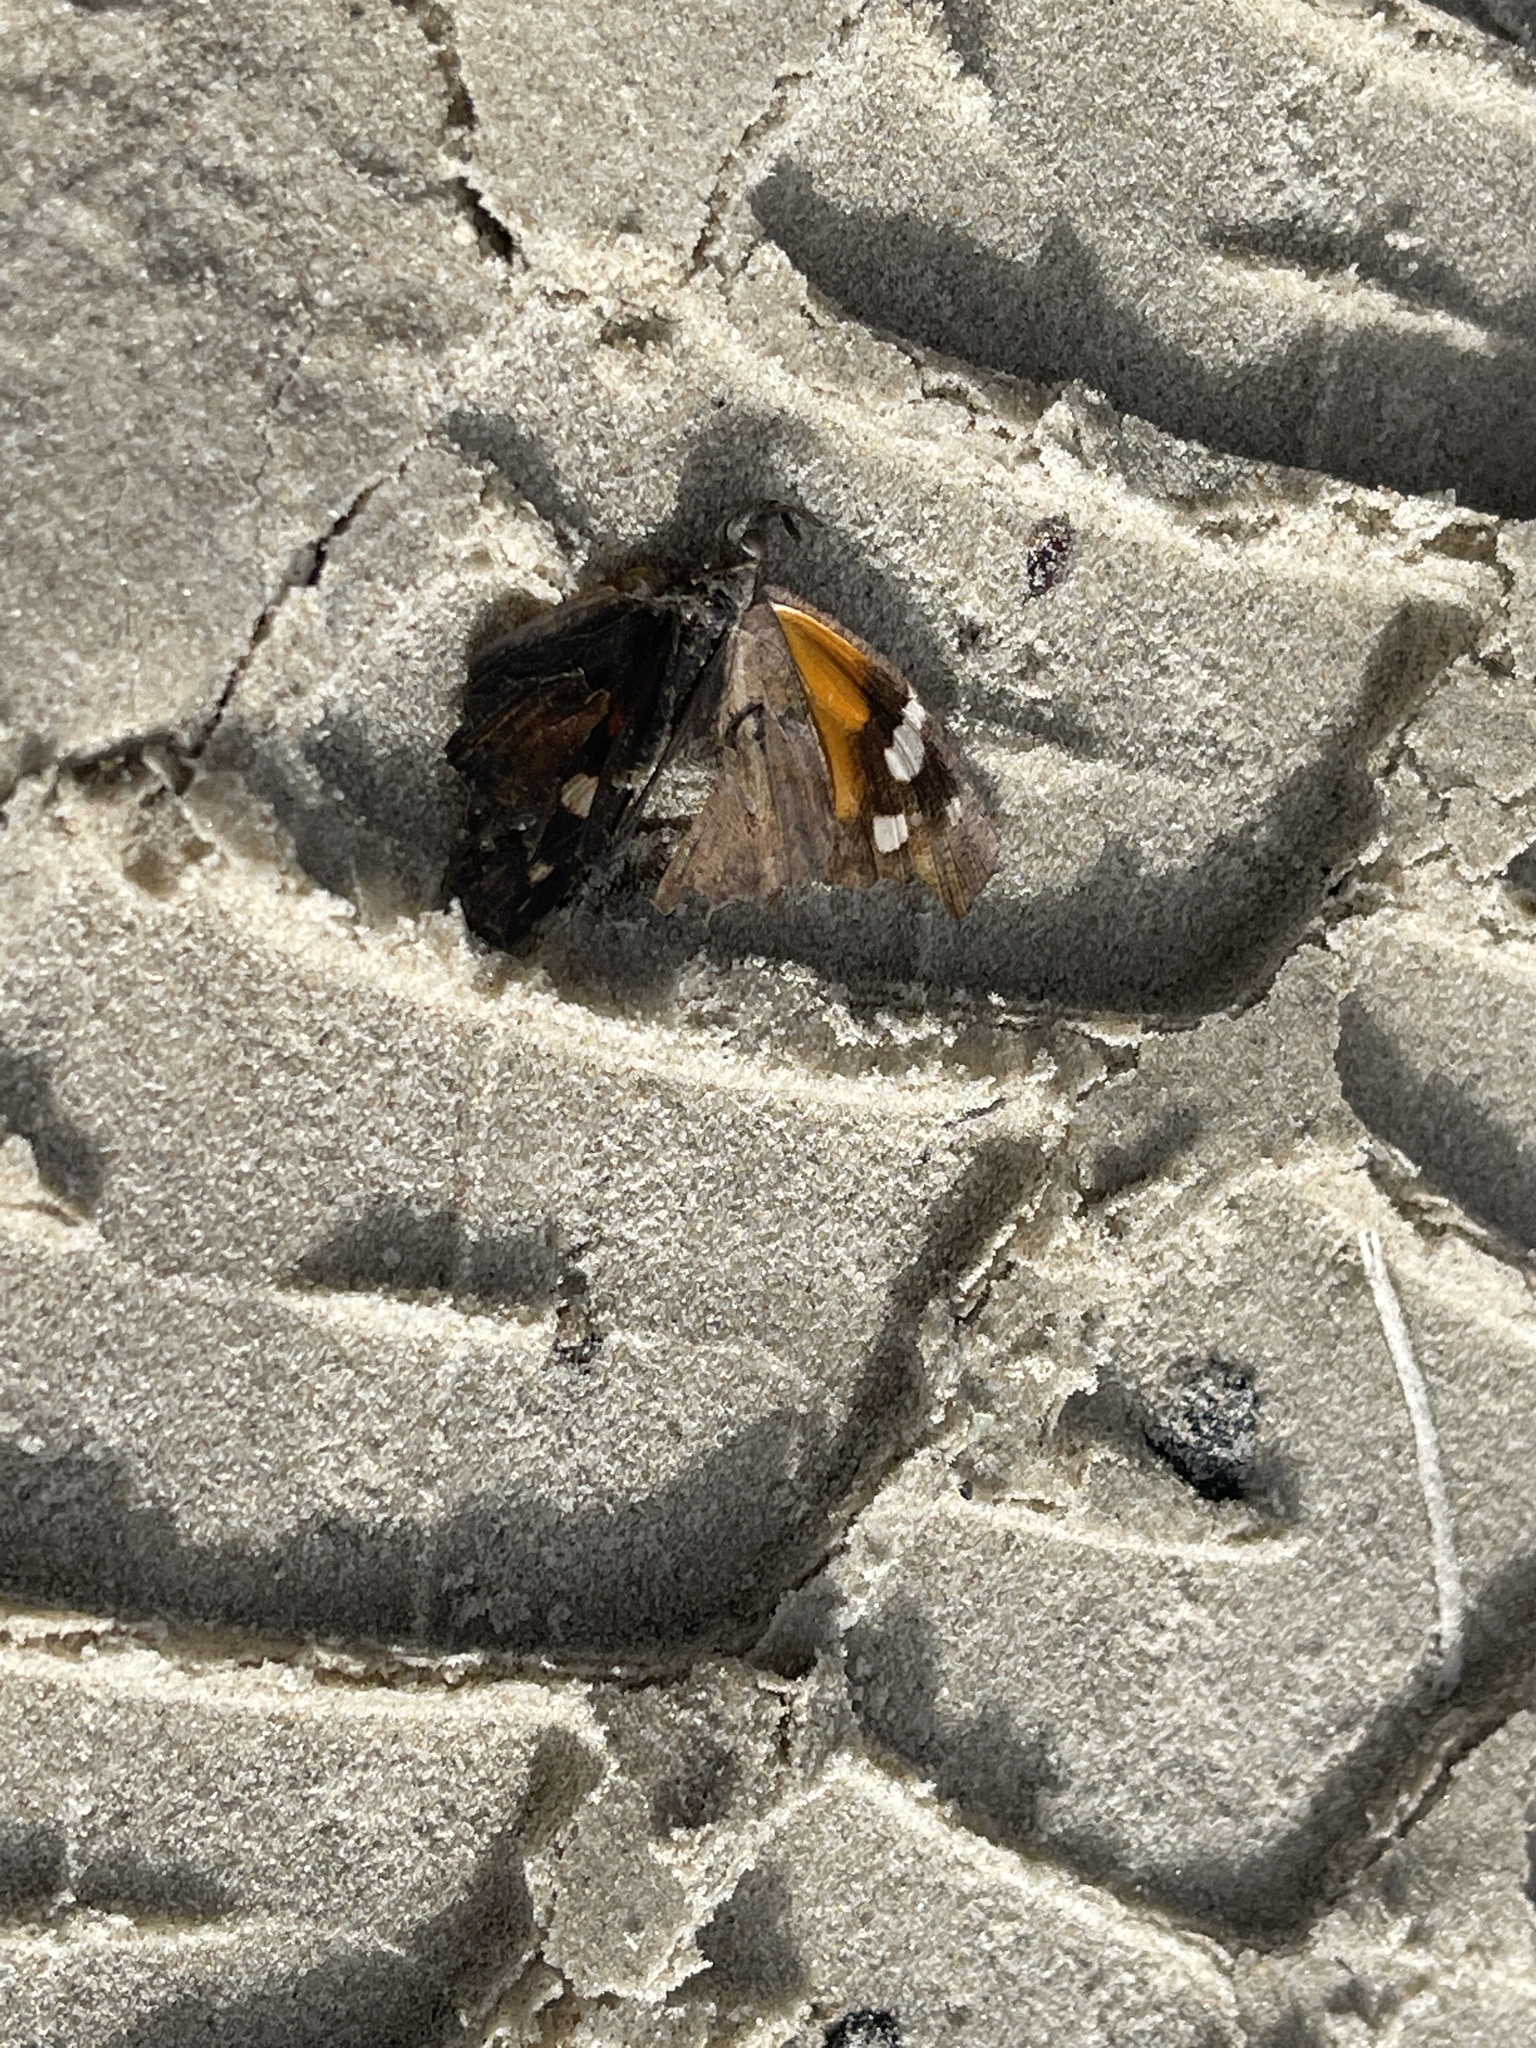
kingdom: Animalia
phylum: Arthropoda
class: Insecta
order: Lepidoptera
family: Nymphalidae
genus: Libytheana
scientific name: Libytheana carinenta
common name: American snout
